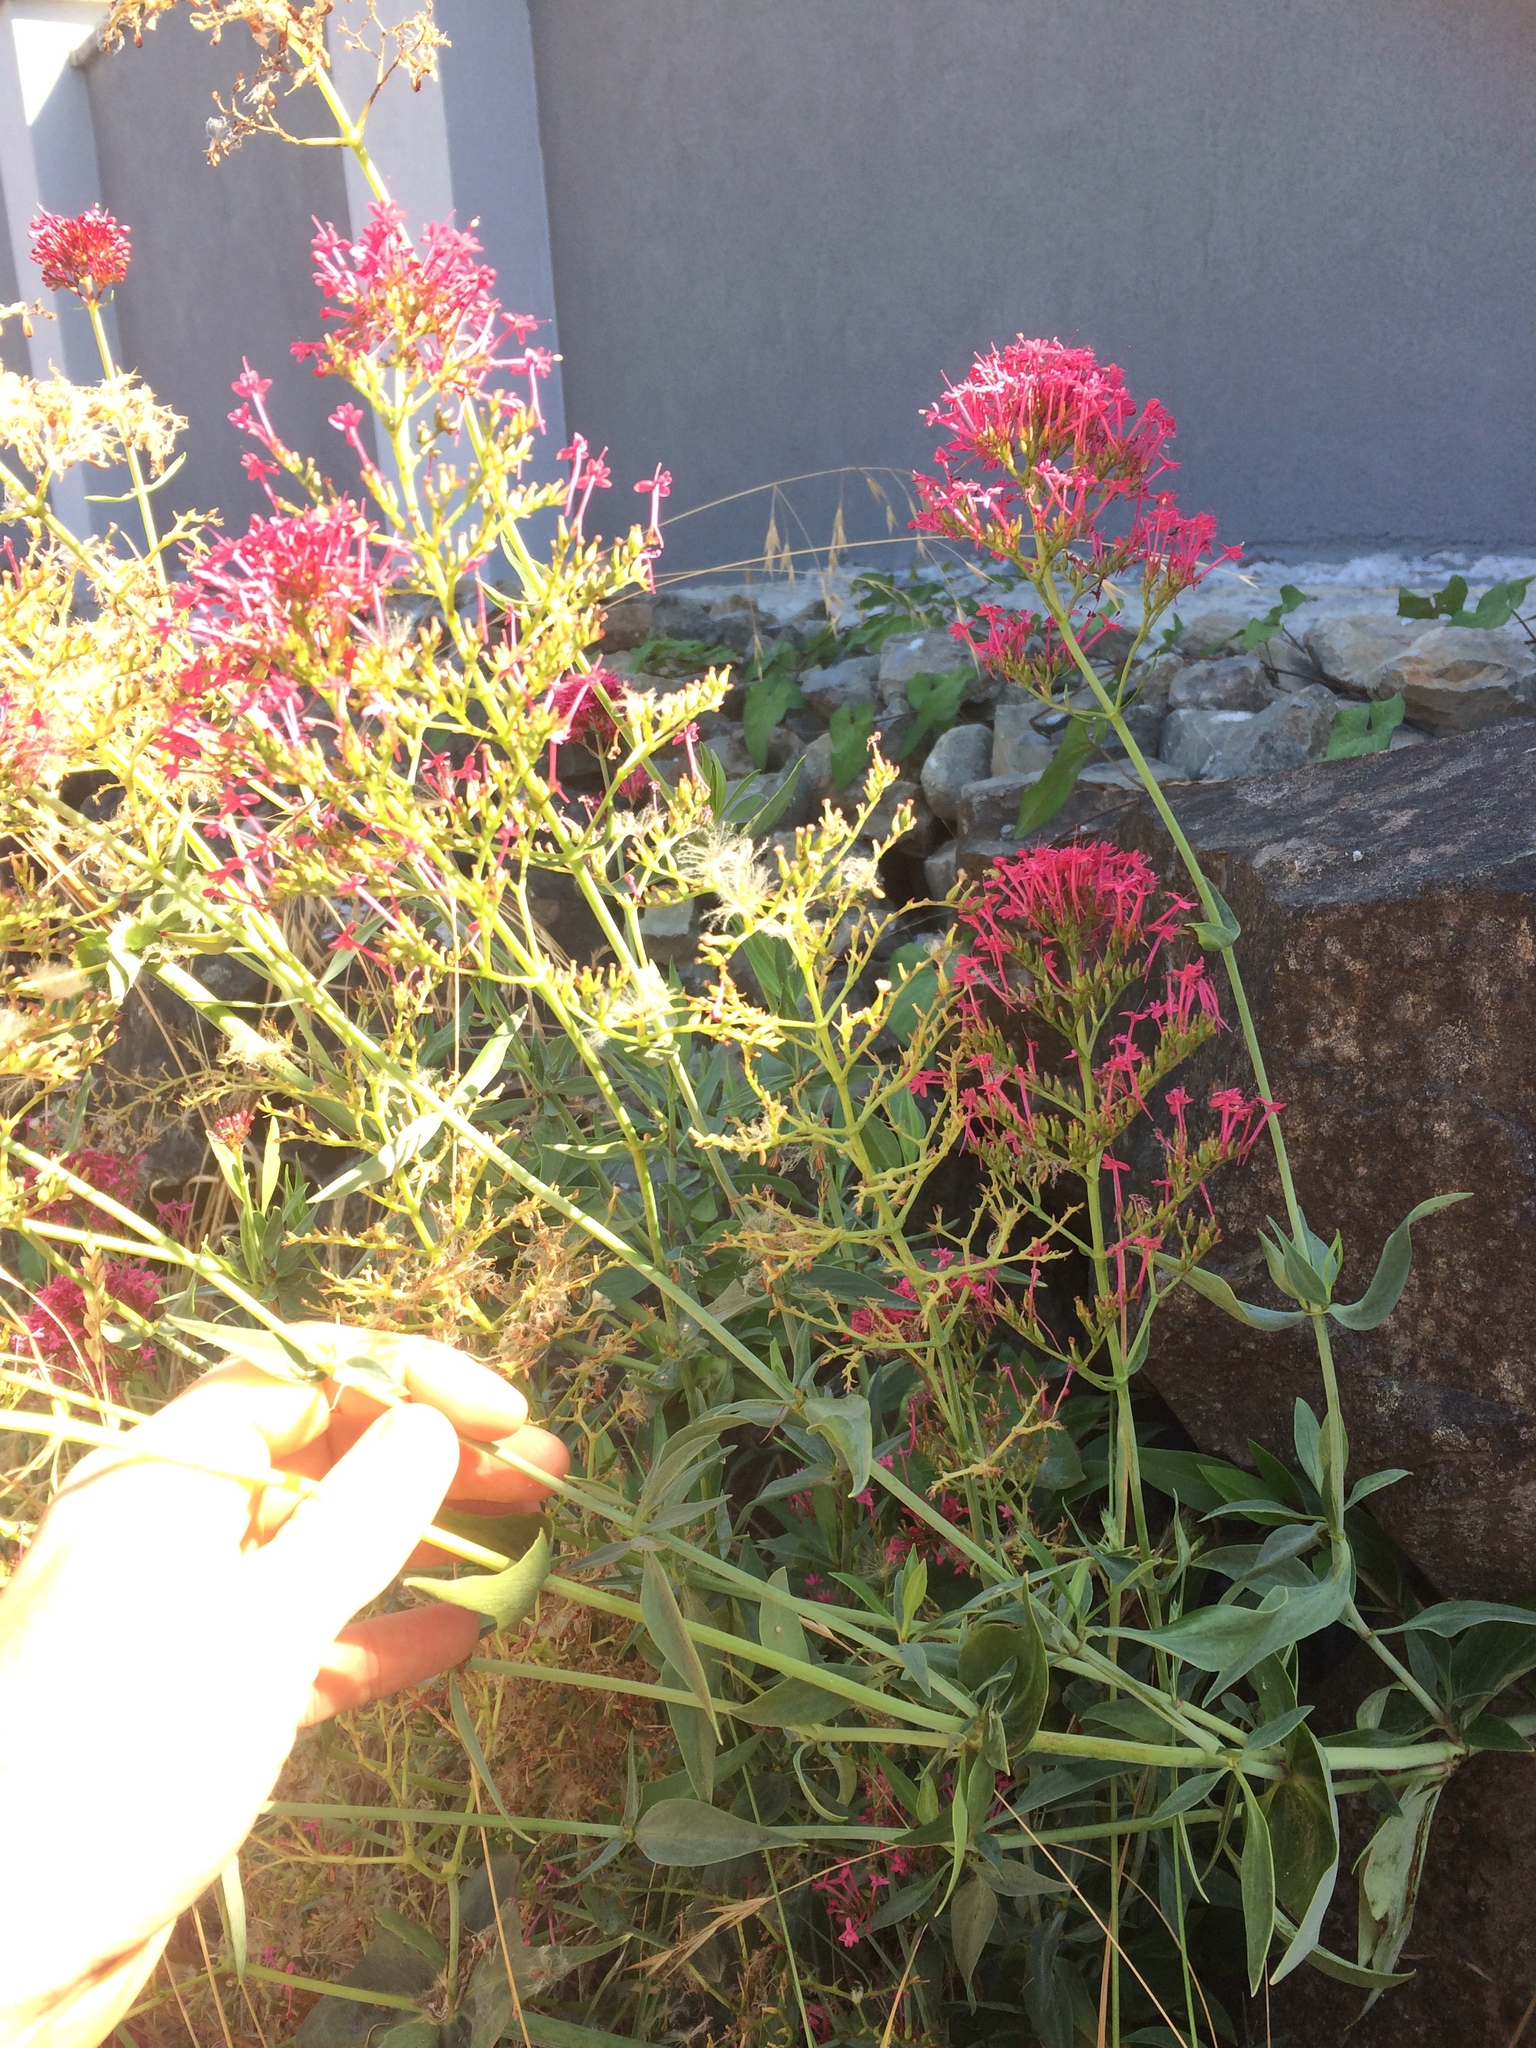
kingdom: Plantae
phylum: Tracheophyta
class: Magnoliopsida
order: Dipsacales
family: Caprifoliaceae
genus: Centranthus
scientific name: Centranthus ruber
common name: Red valerian
